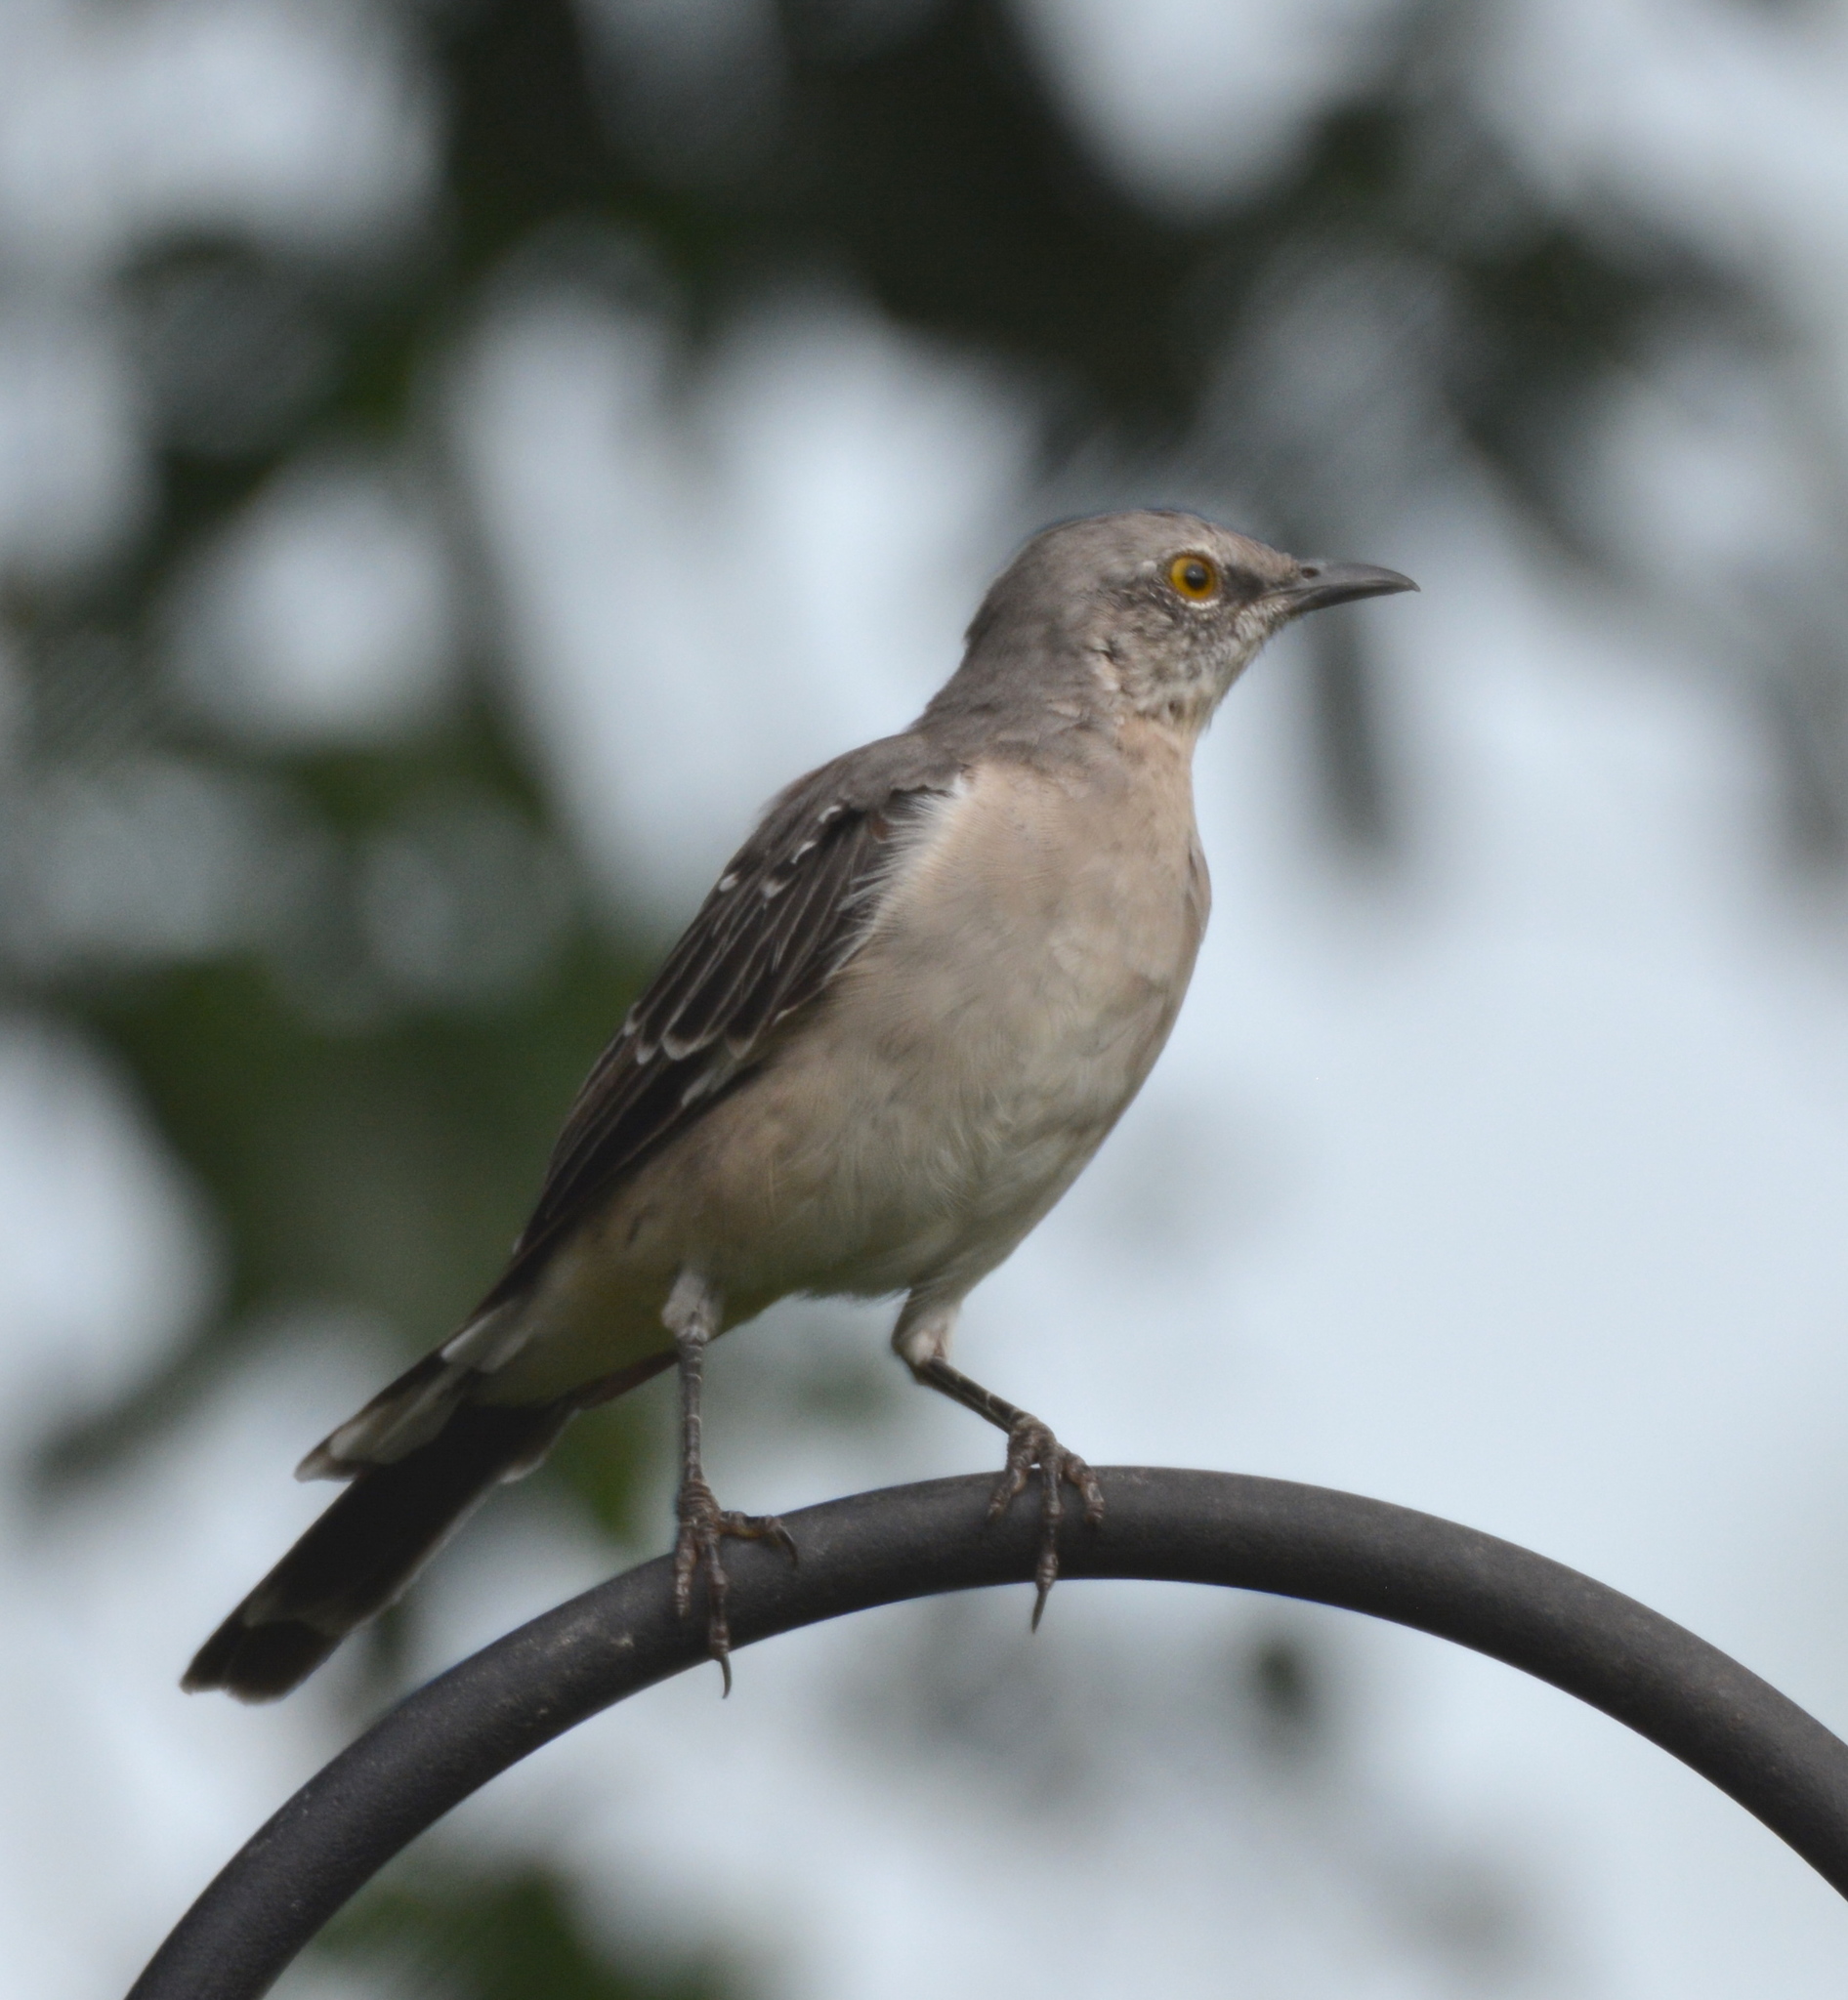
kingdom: Animalia
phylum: Chordata
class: Aves
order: Passeriformes
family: Mimidae
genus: Mimus
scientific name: Mimus polyglottos
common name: Northern mockingbird
